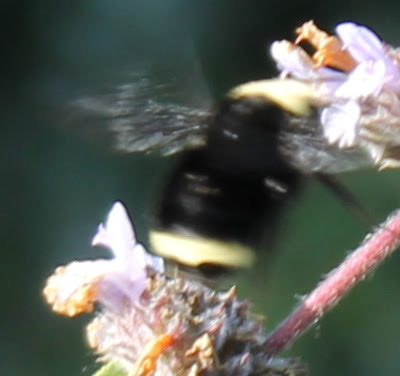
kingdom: Animalia
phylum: Arthropoda
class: Insecta
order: Hymenoptera
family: Apidae
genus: Bombus
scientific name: Bombus vosnesenskii
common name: Vosnesensky bumble bee
